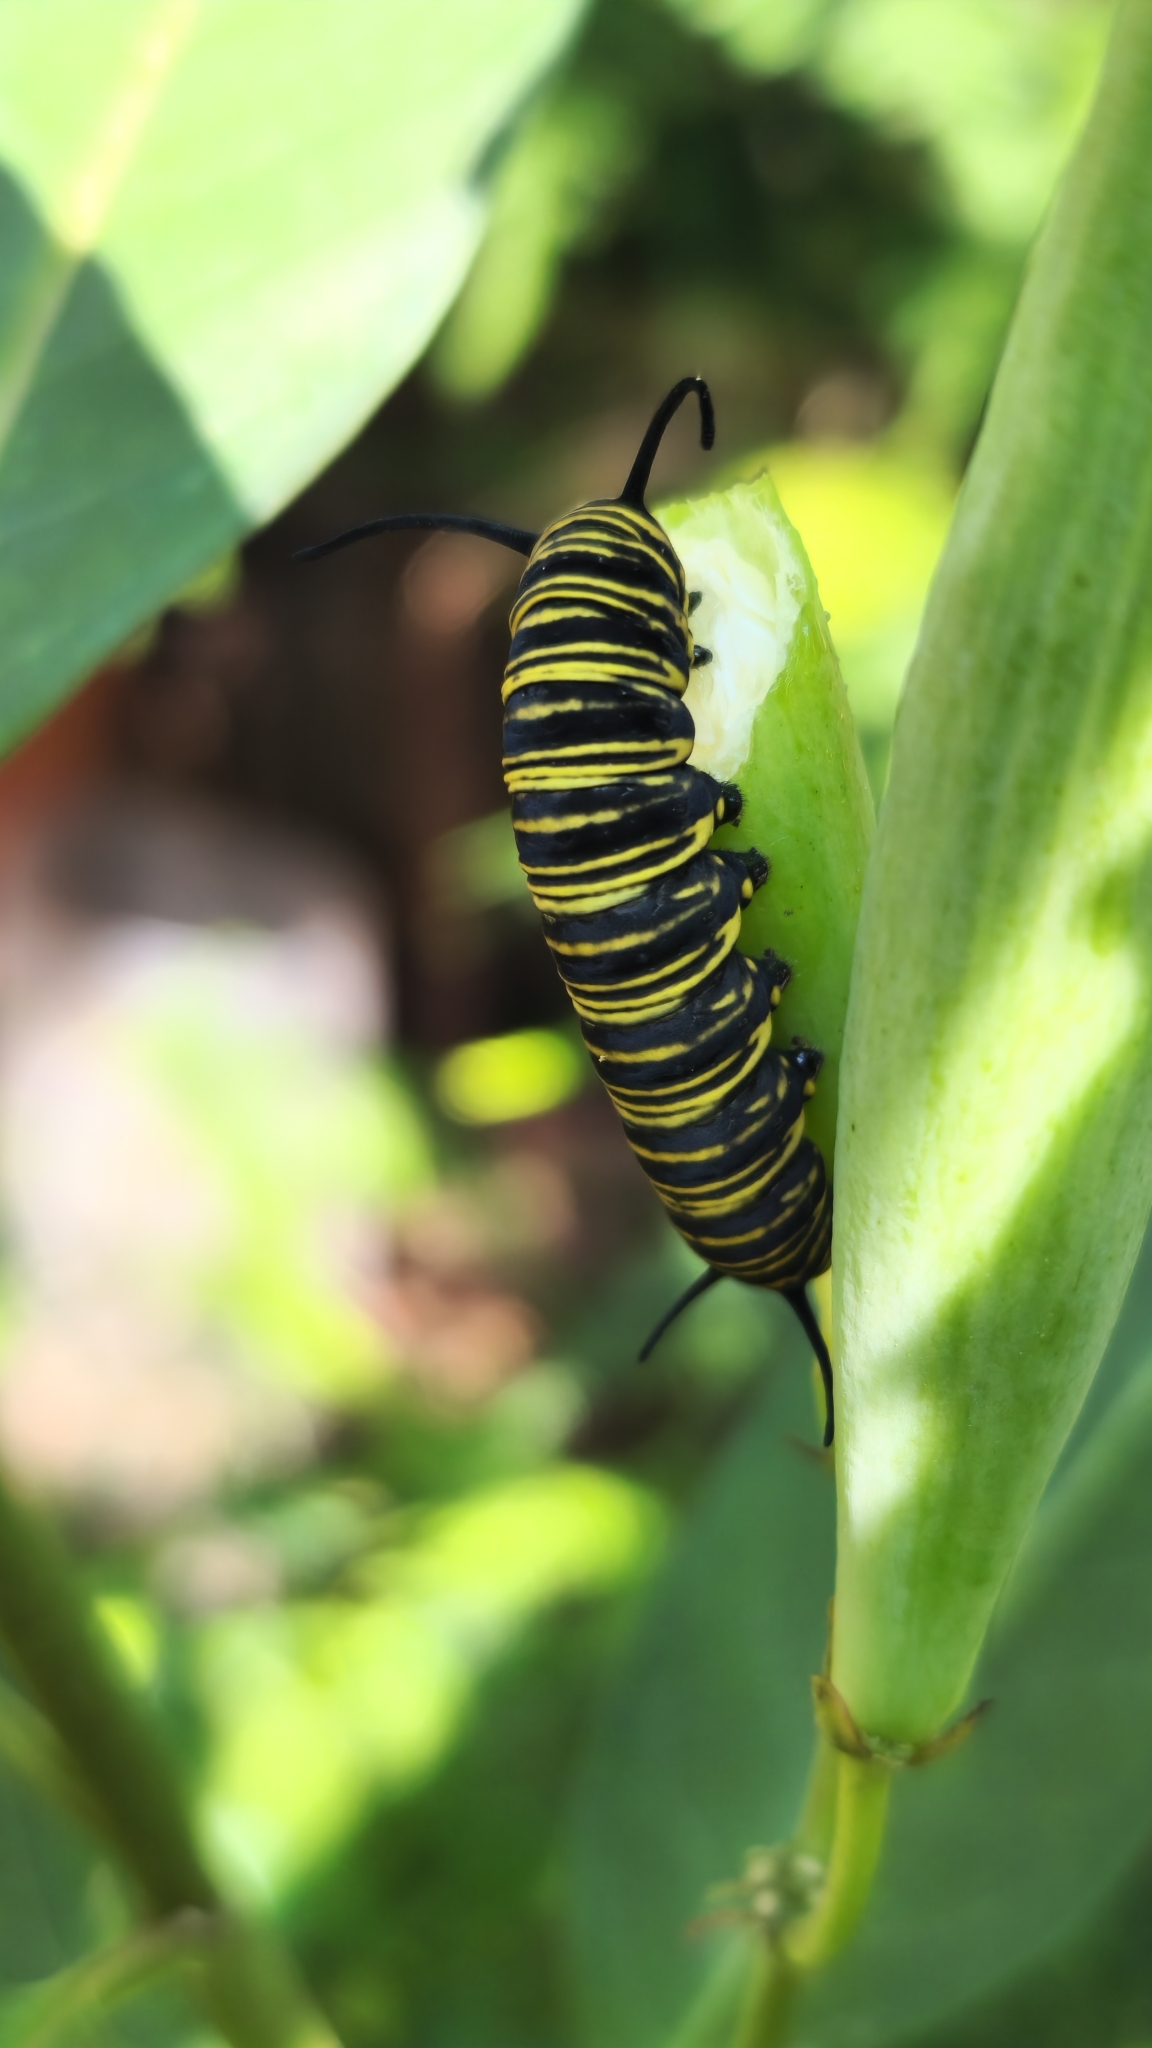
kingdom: Animalia
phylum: Arthropoda
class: Insecta
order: Lepidoptera
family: Nymphalidae
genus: Danaus
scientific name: Danaus erippus
